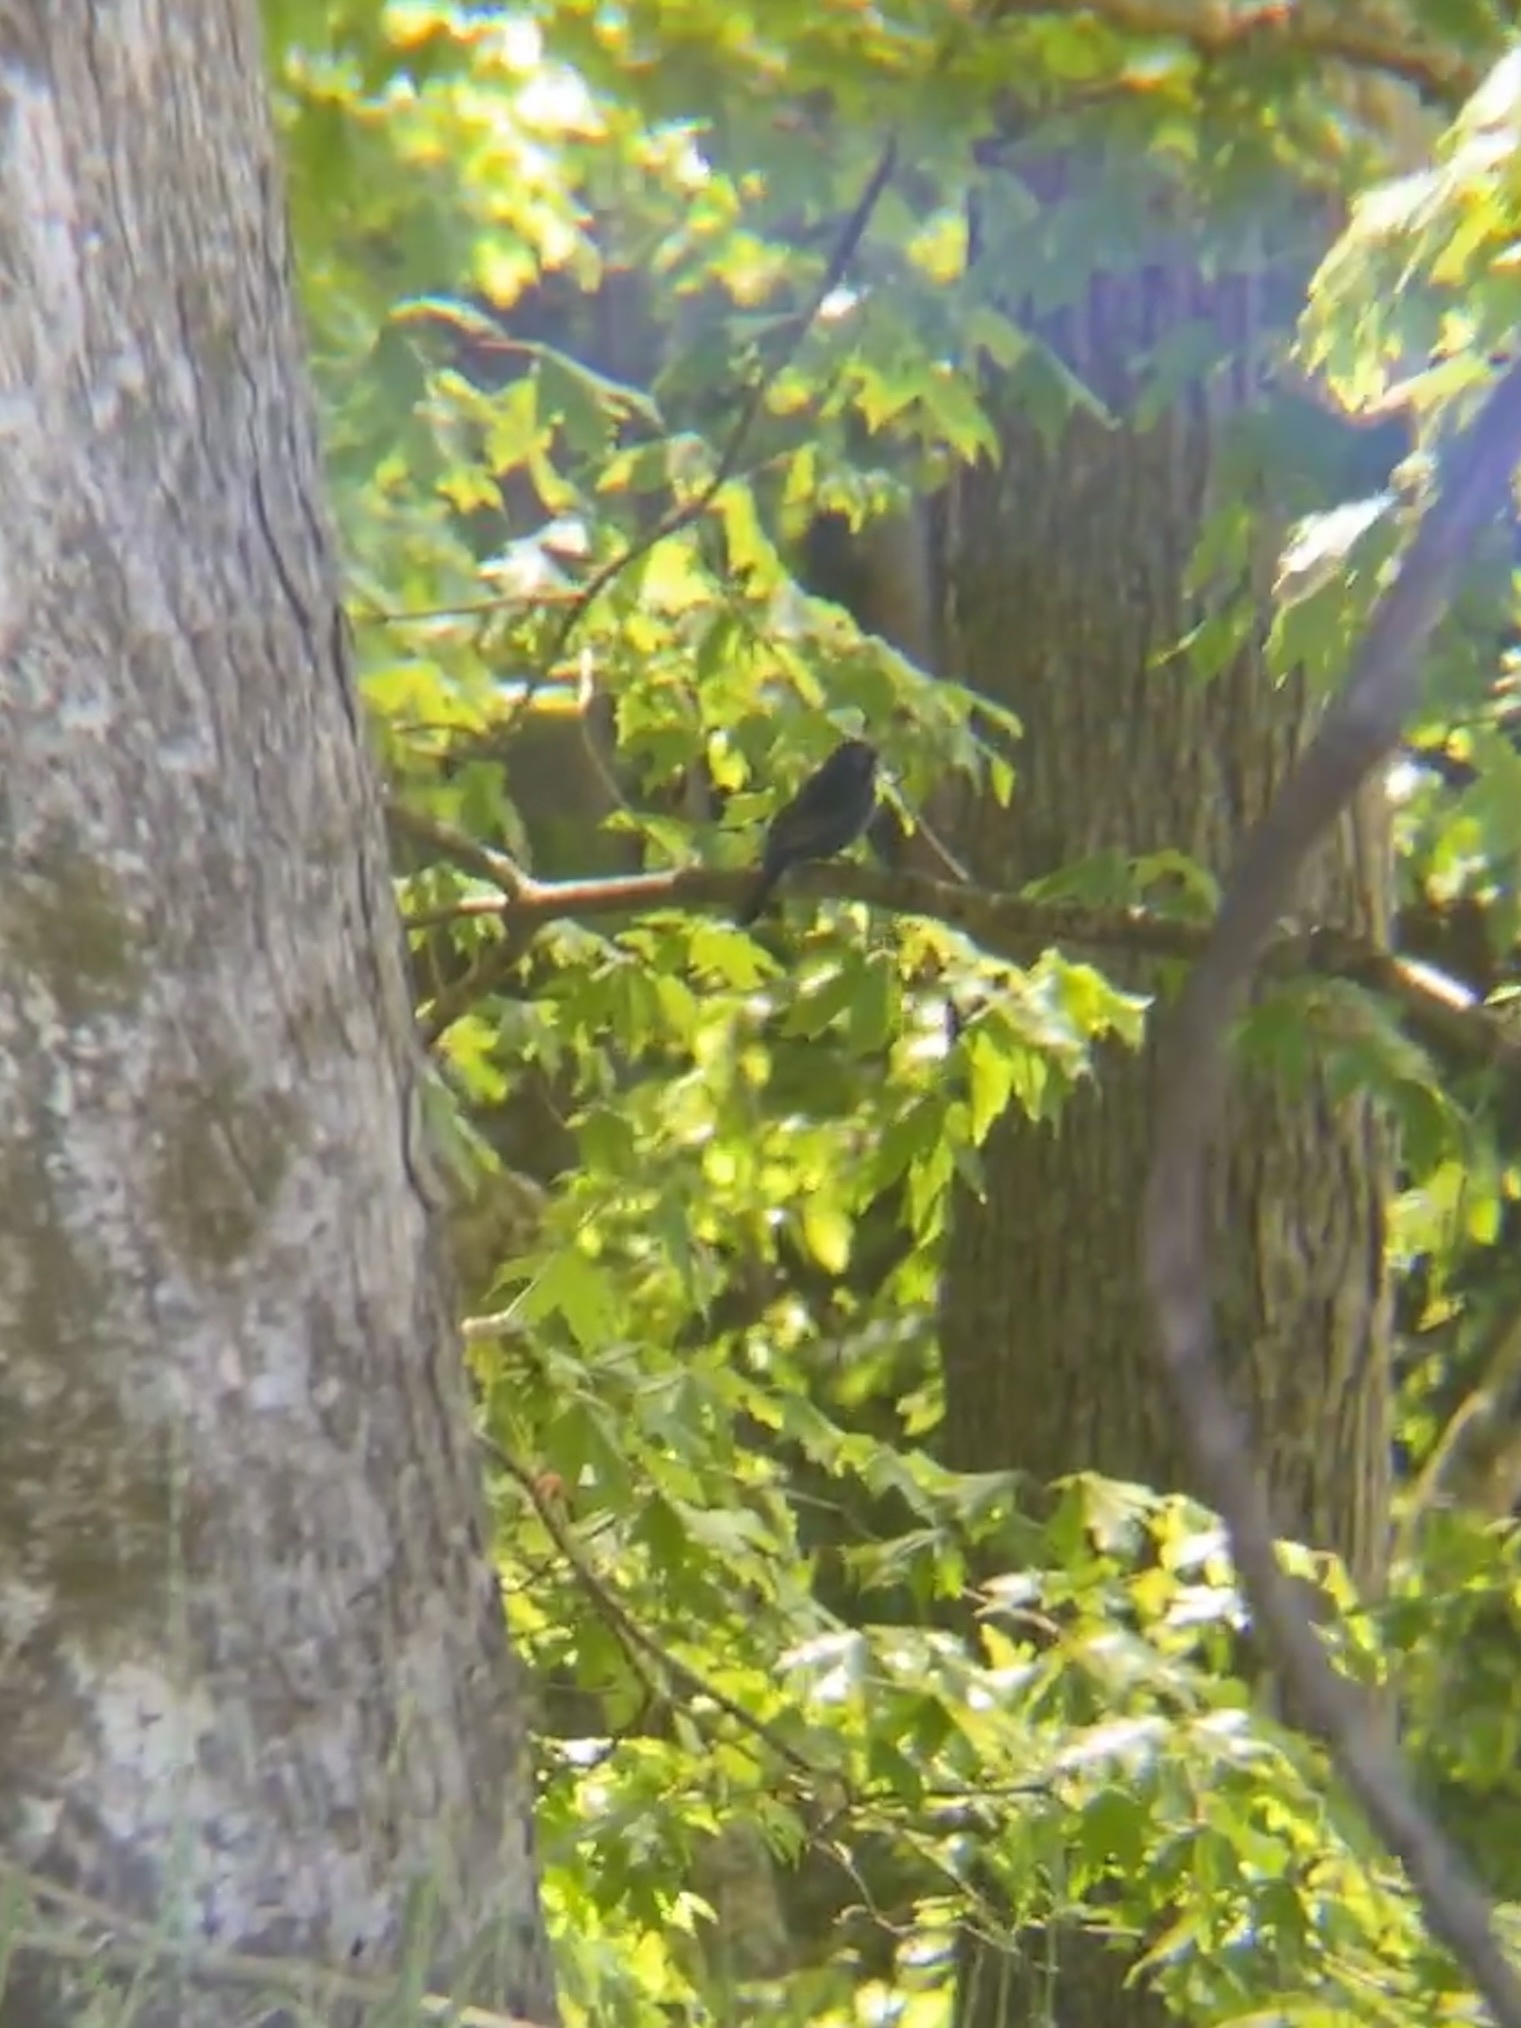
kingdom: Animalia
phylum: Chordata
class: Aves
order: Passeriformes
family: Cardinalidae
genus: Passerina
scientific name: Passerina caerulea
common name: Blue grosbeak
